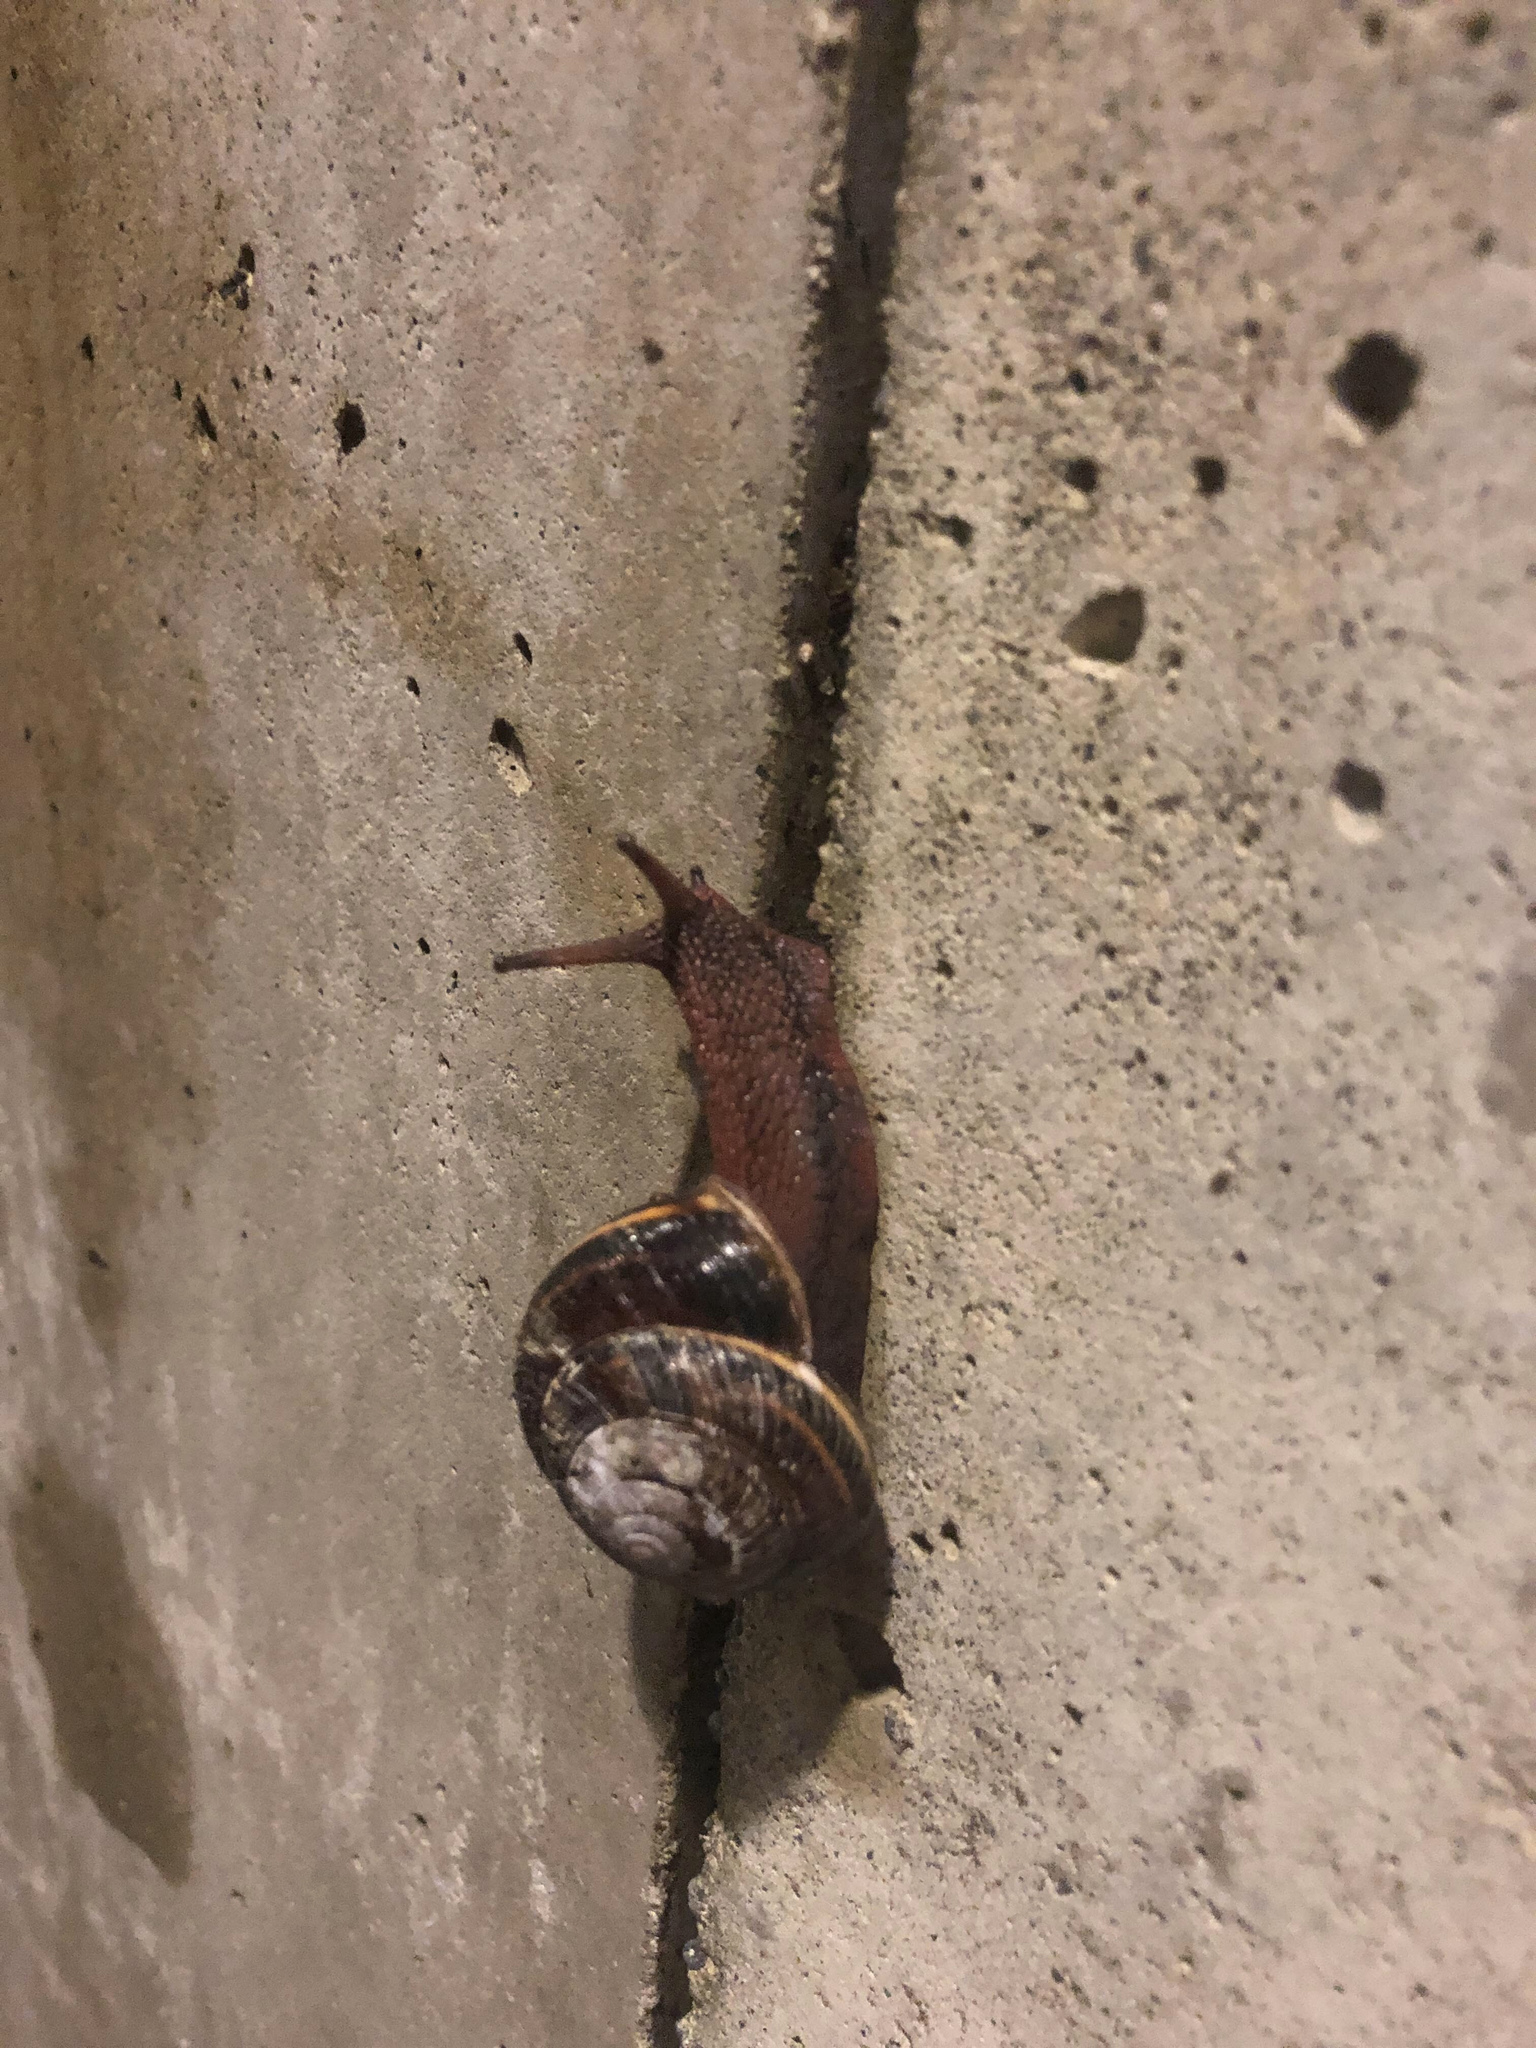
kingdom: Animalia
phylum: Mollusca
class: Gastropoda
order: Stylommatophora
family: Xanthonychidae
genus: Monadenia
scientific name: Monadenia fidelis
